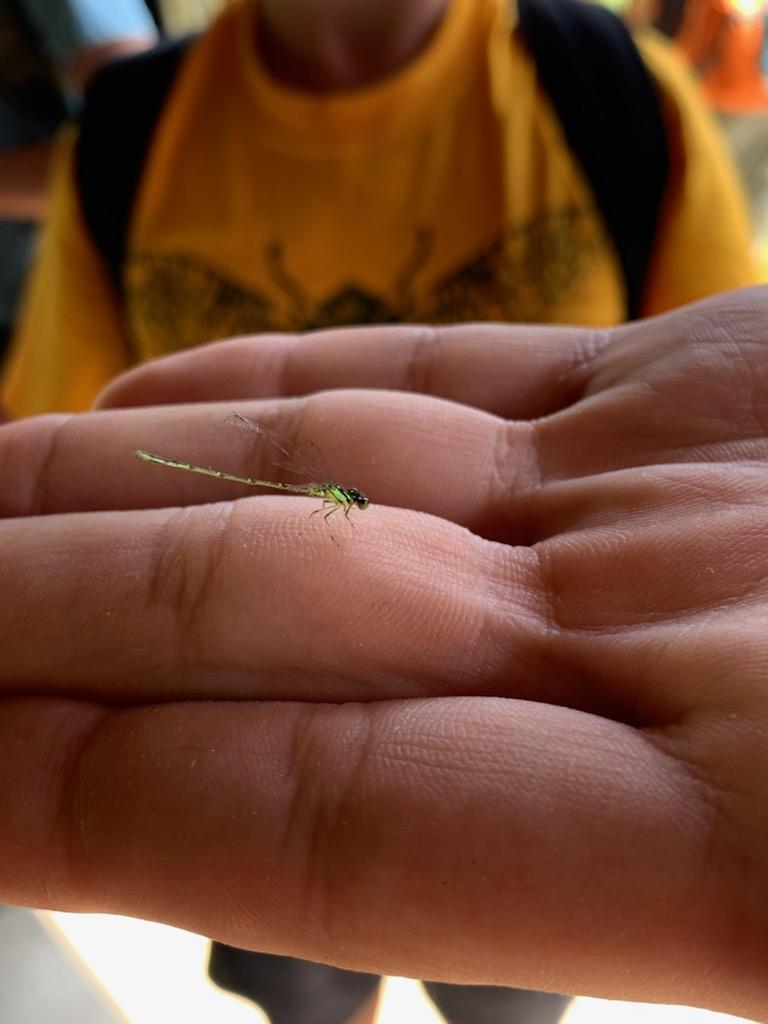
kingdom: Animalia
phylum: Arthropoda
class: Insecta
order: Odonata
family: Coenagrionidae
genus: Ischnura
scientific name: Ischnura posita
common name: Fragile forktail
